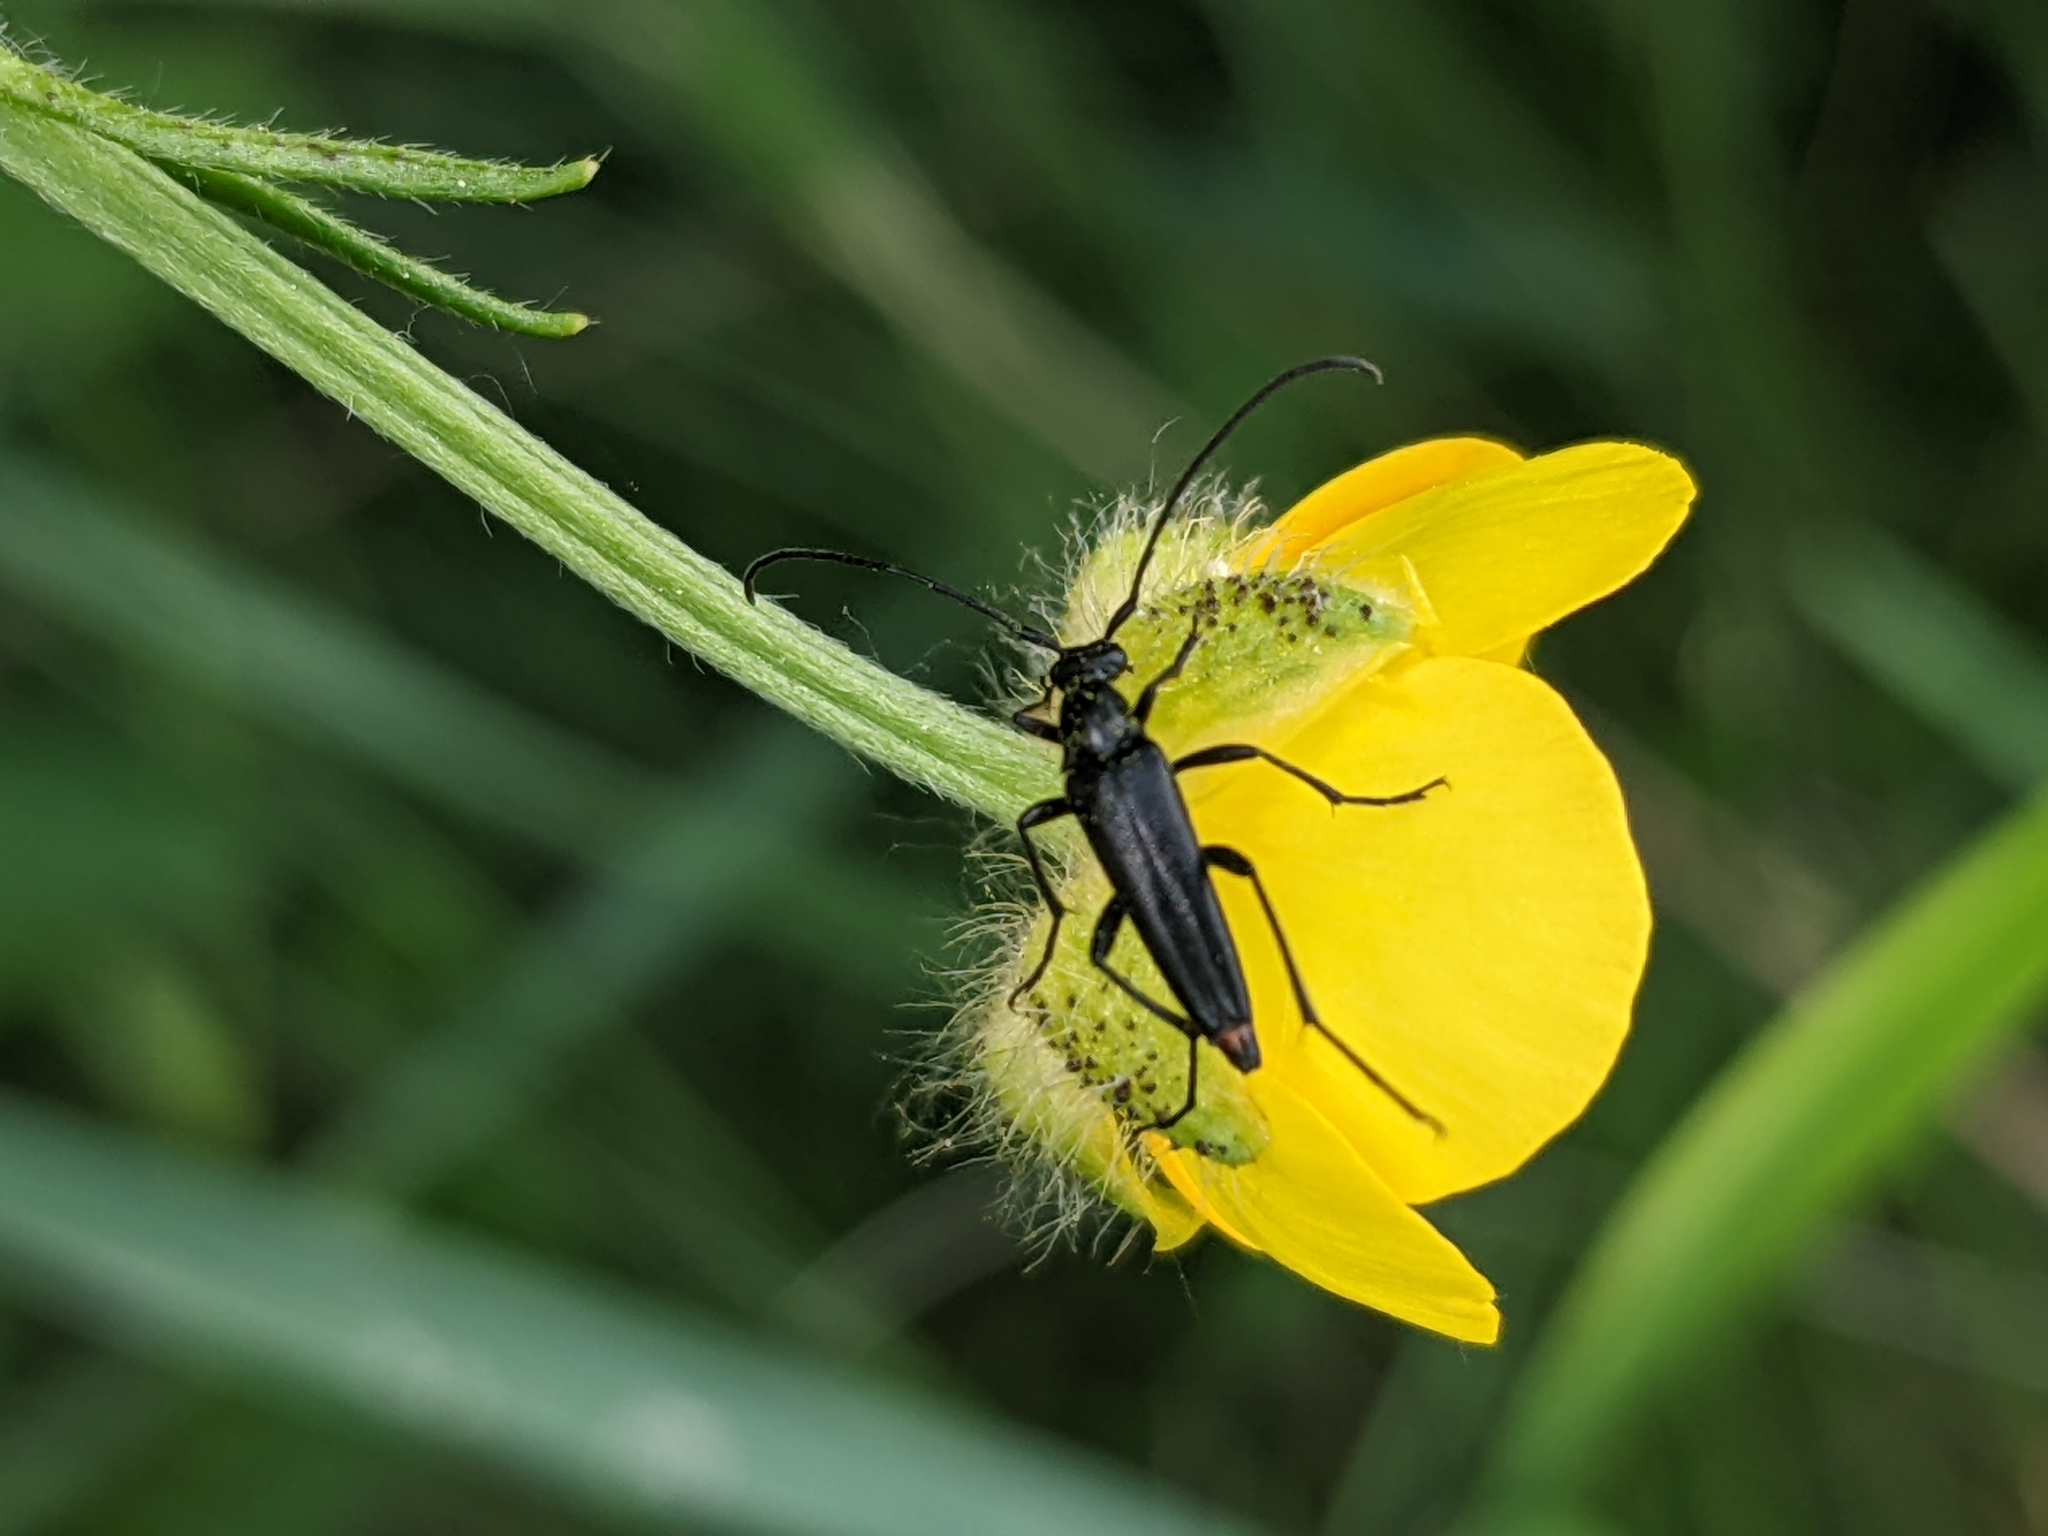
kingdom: Animalia
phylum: Arthropoda
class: Insecta
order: Coleoptera
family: Cerambycidae
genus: Stenurella
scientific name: Stenurella nigra
